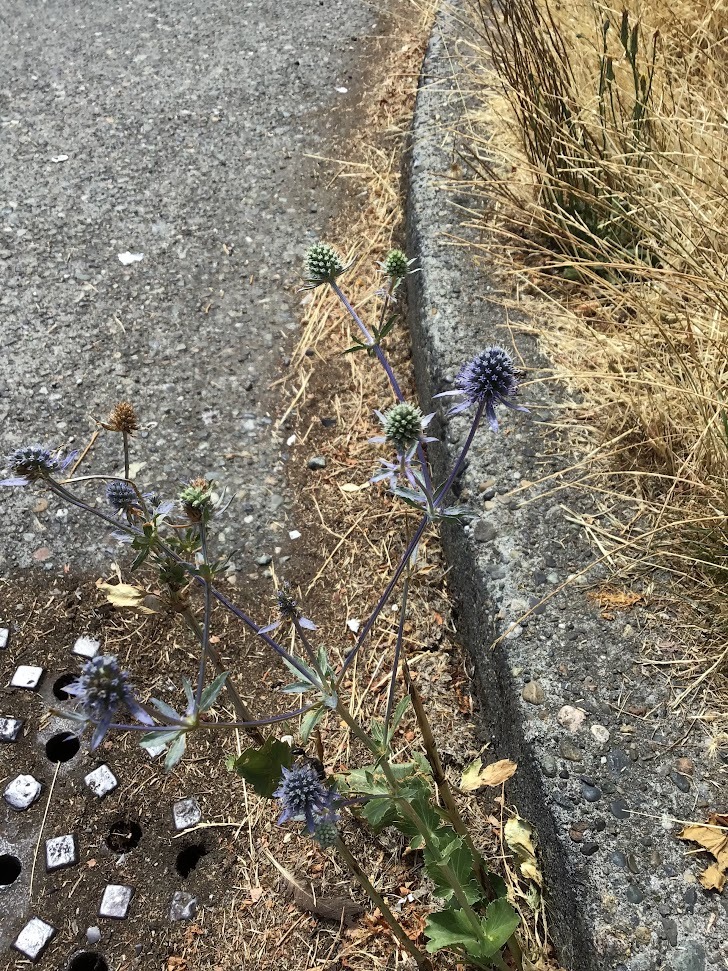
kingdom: Plantae
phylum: Tracheophyta
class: Magnoliopsida
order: Apiales
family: Apiaceae
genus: Eryngium
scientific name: Eryngium planum
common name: Blue eryngo
